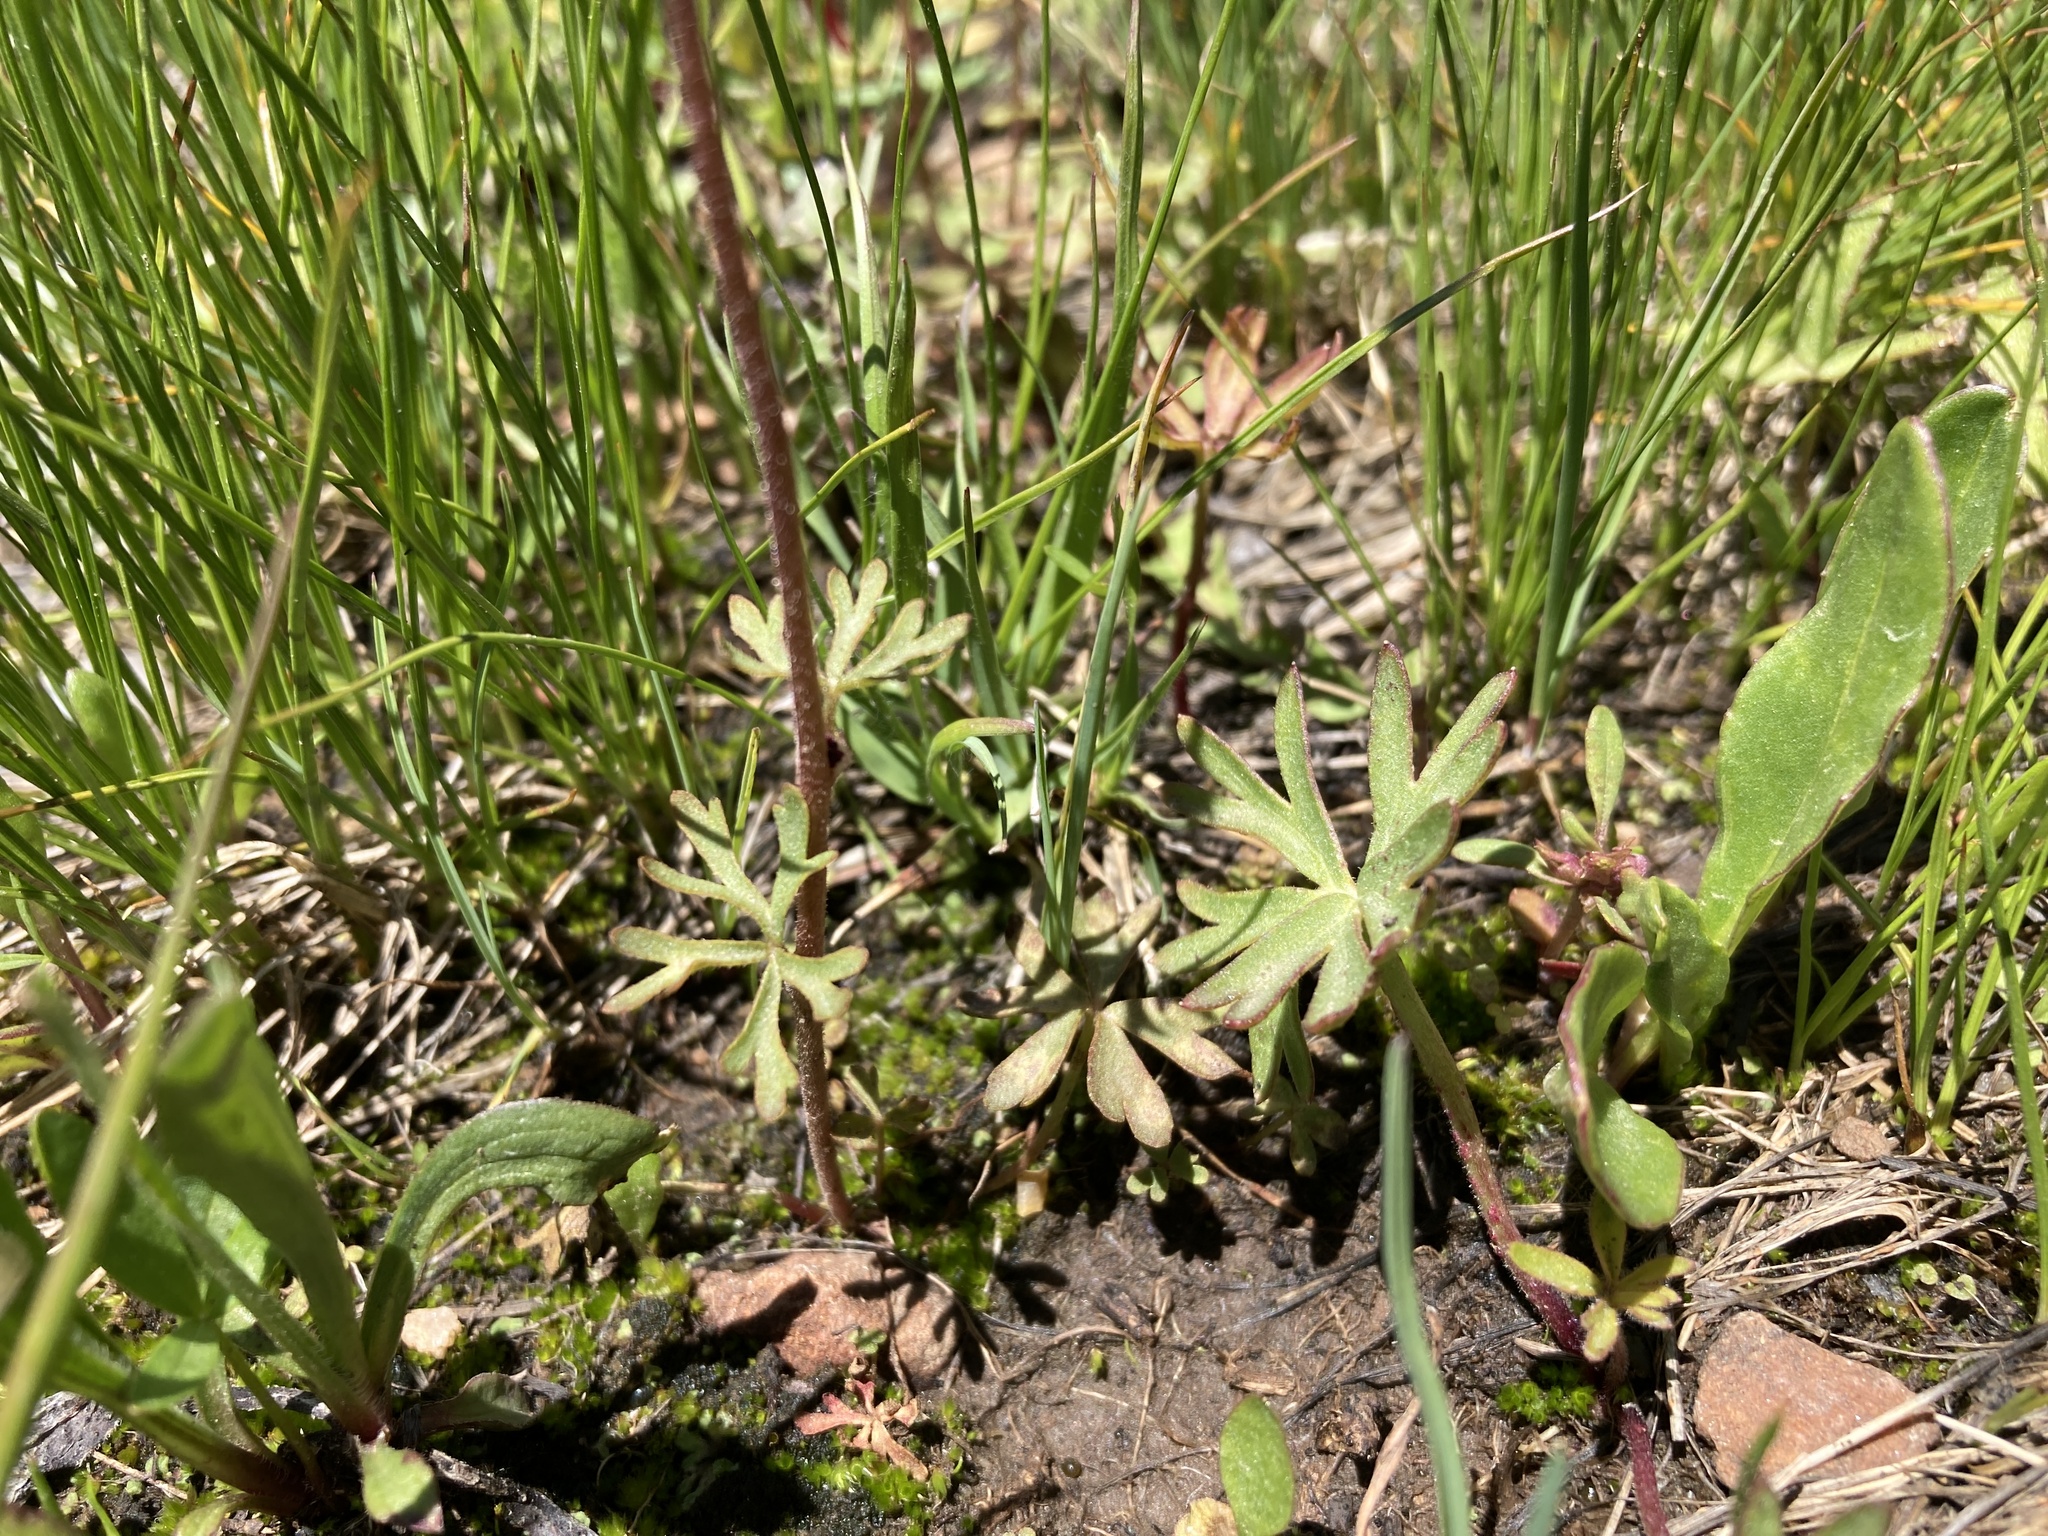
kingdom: Plantae
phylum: Tracheophyta
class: Magnoliopsida
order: Saxifragales
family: Saxifragaceae
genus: Lithophragma
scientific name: Lithophragma glabrum
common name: Bulbous prairie-star
